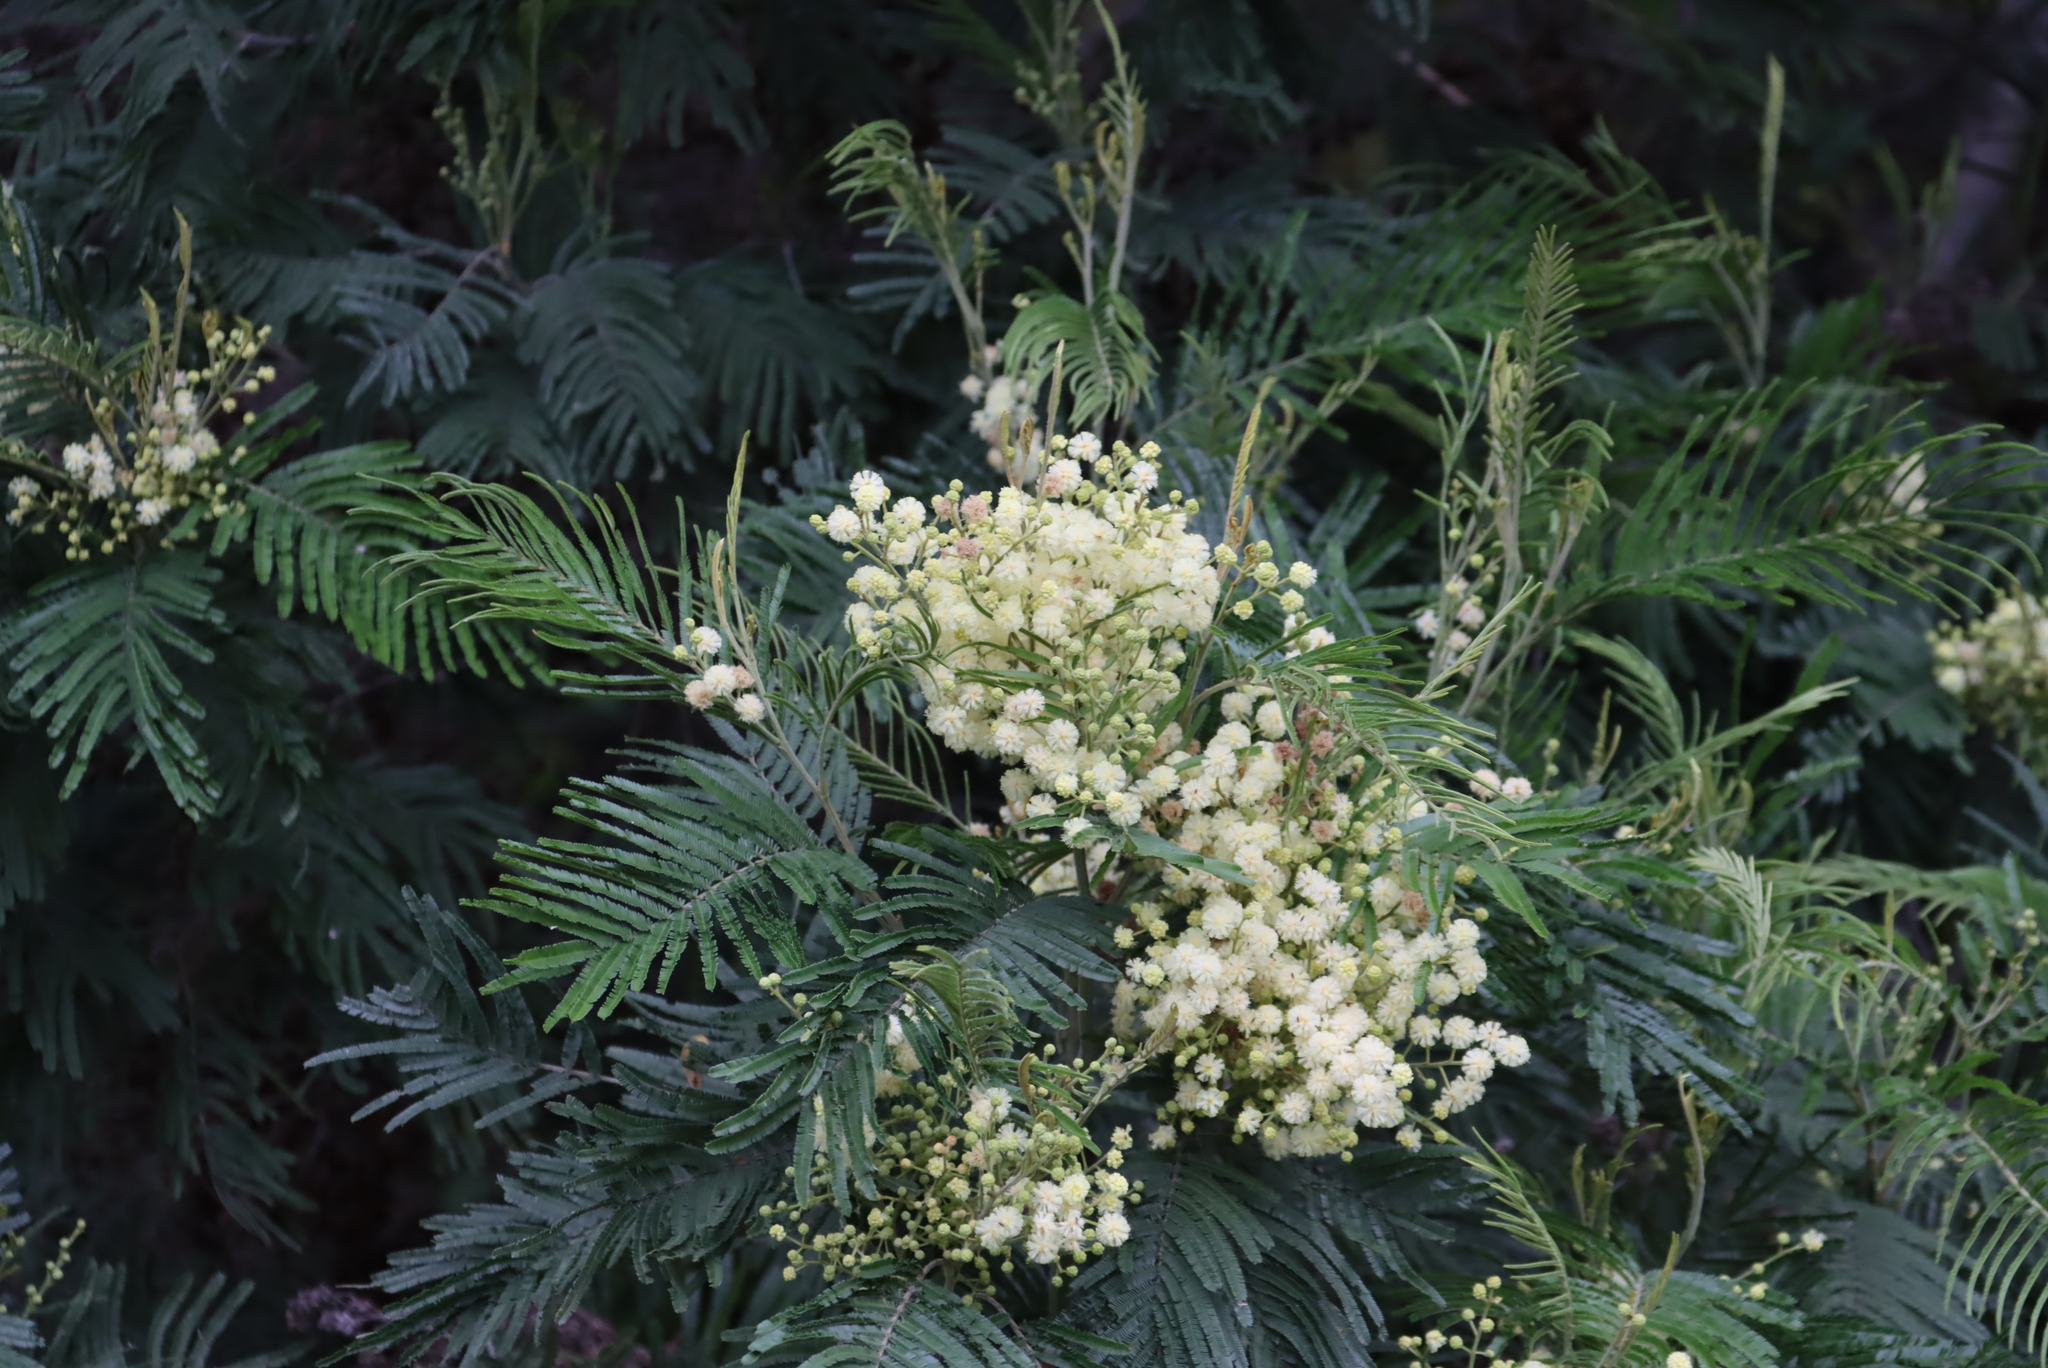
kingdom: Plantae
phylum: Tracheophyta
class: Magnoliopsida
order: Fabales
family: Fabaceae
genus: Acacia
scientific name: Acacia mearnsii
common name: Black wattle
